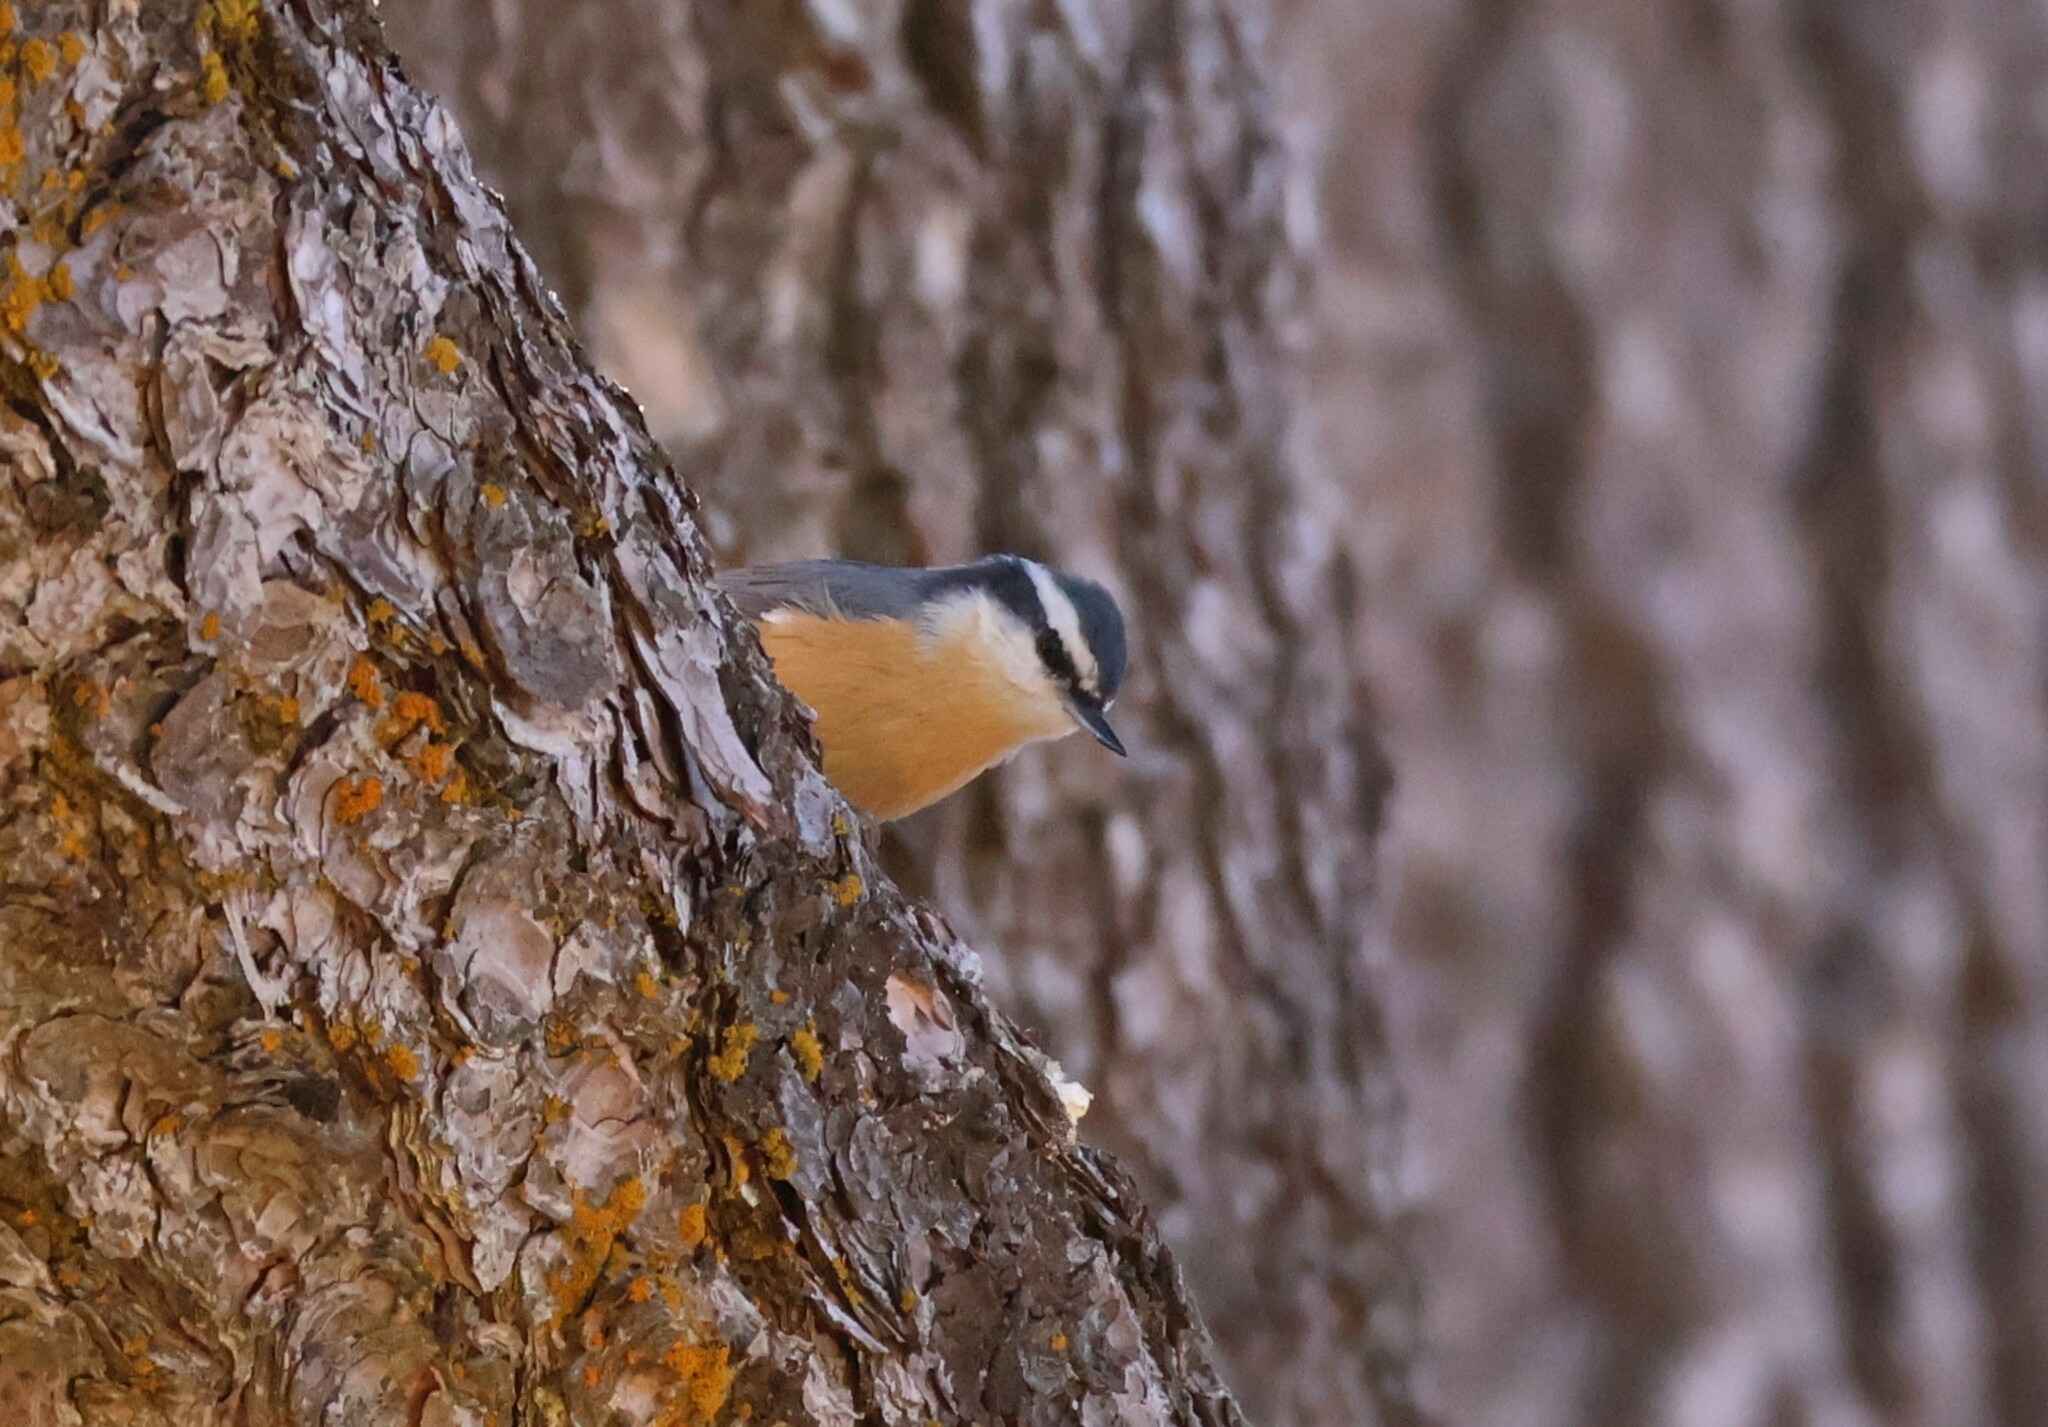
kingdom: Animalia
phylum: Chordata
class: Aves
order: Passeriformes
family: Sittidae
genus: Sitta
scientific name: Sitta canadensis
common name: Red-breasted nuthatch
